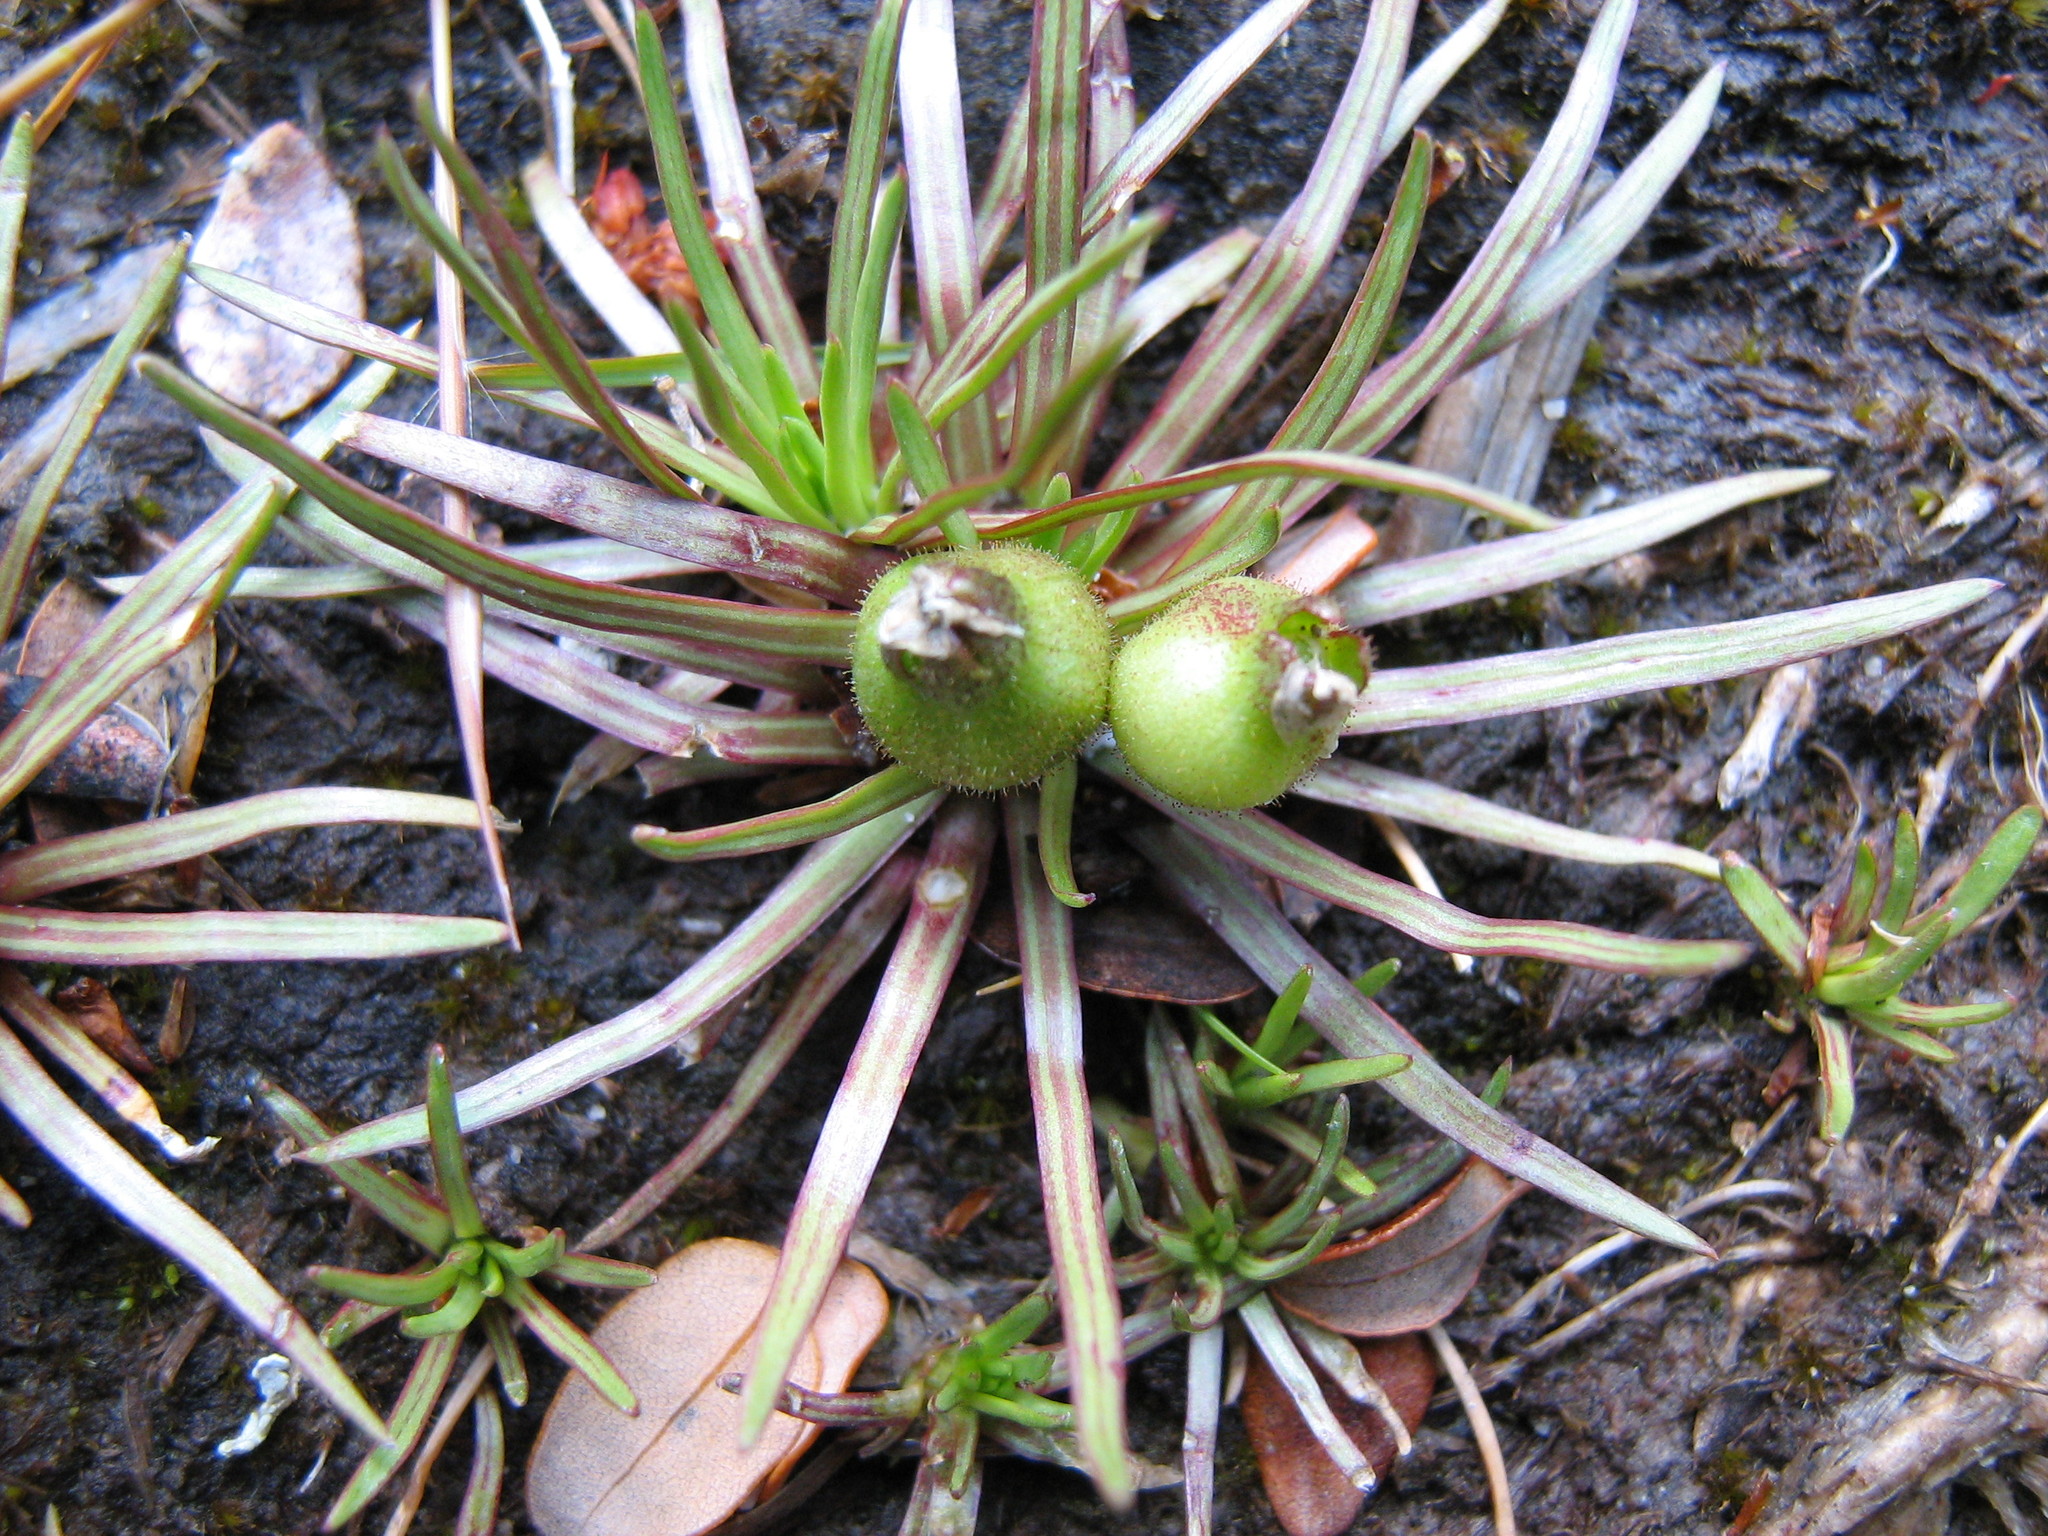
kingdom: Plantae
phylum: Tracheophyta
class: Magnoliopsida
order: Asterales
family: Stylidiaceae
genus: Oreostylidium
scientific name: Oreostylidium subulatum
